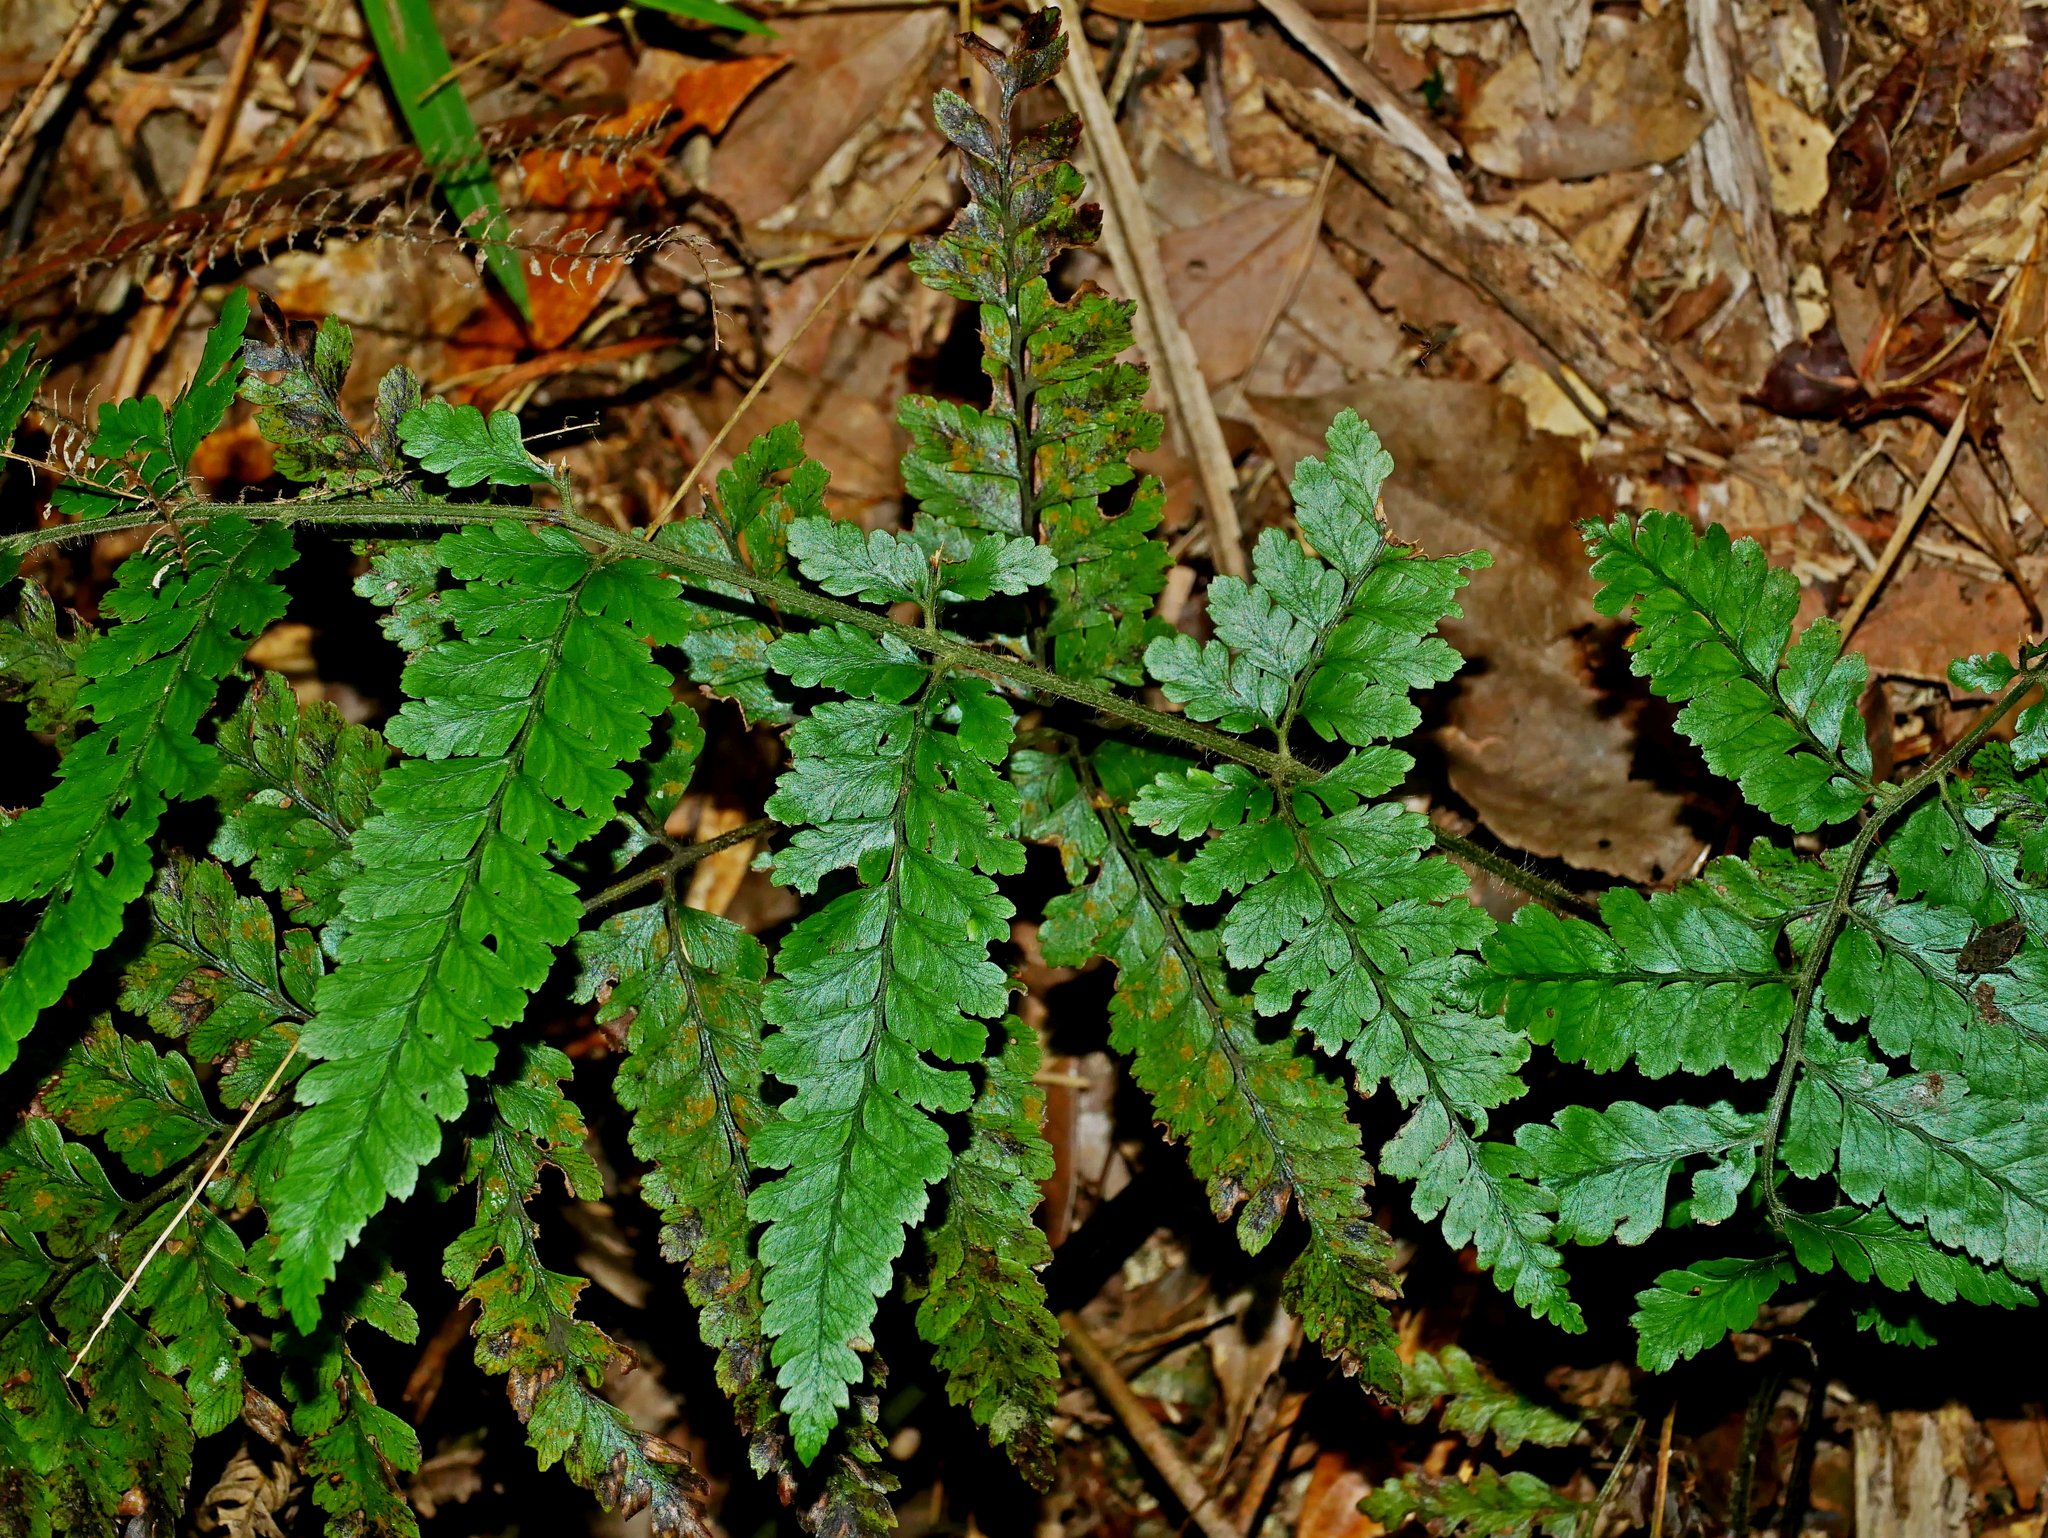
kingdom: Plantae
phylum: Tracheophyta
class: Polypodiopsida
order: Polypodiales
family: Dennstaedtiaceae
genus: Microlepia
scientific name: Microlepia trichocarpa
